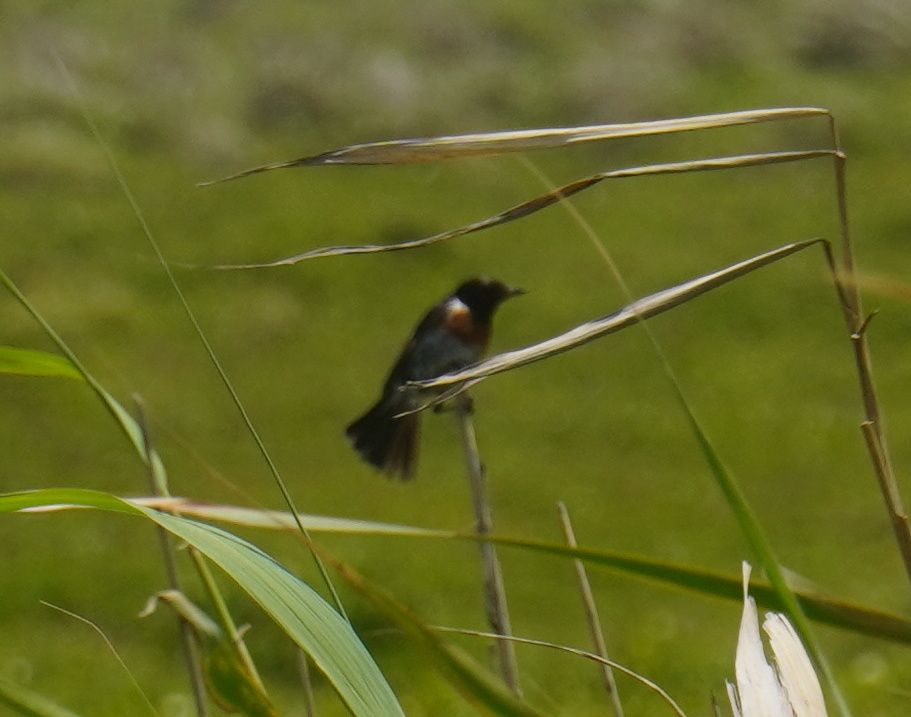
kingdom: Animalia
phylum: Chordata
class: Aves
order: Passeriformes
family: Muscicapidae
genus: Saxicola
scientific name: Saxicola torquatus
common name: African stonechat
